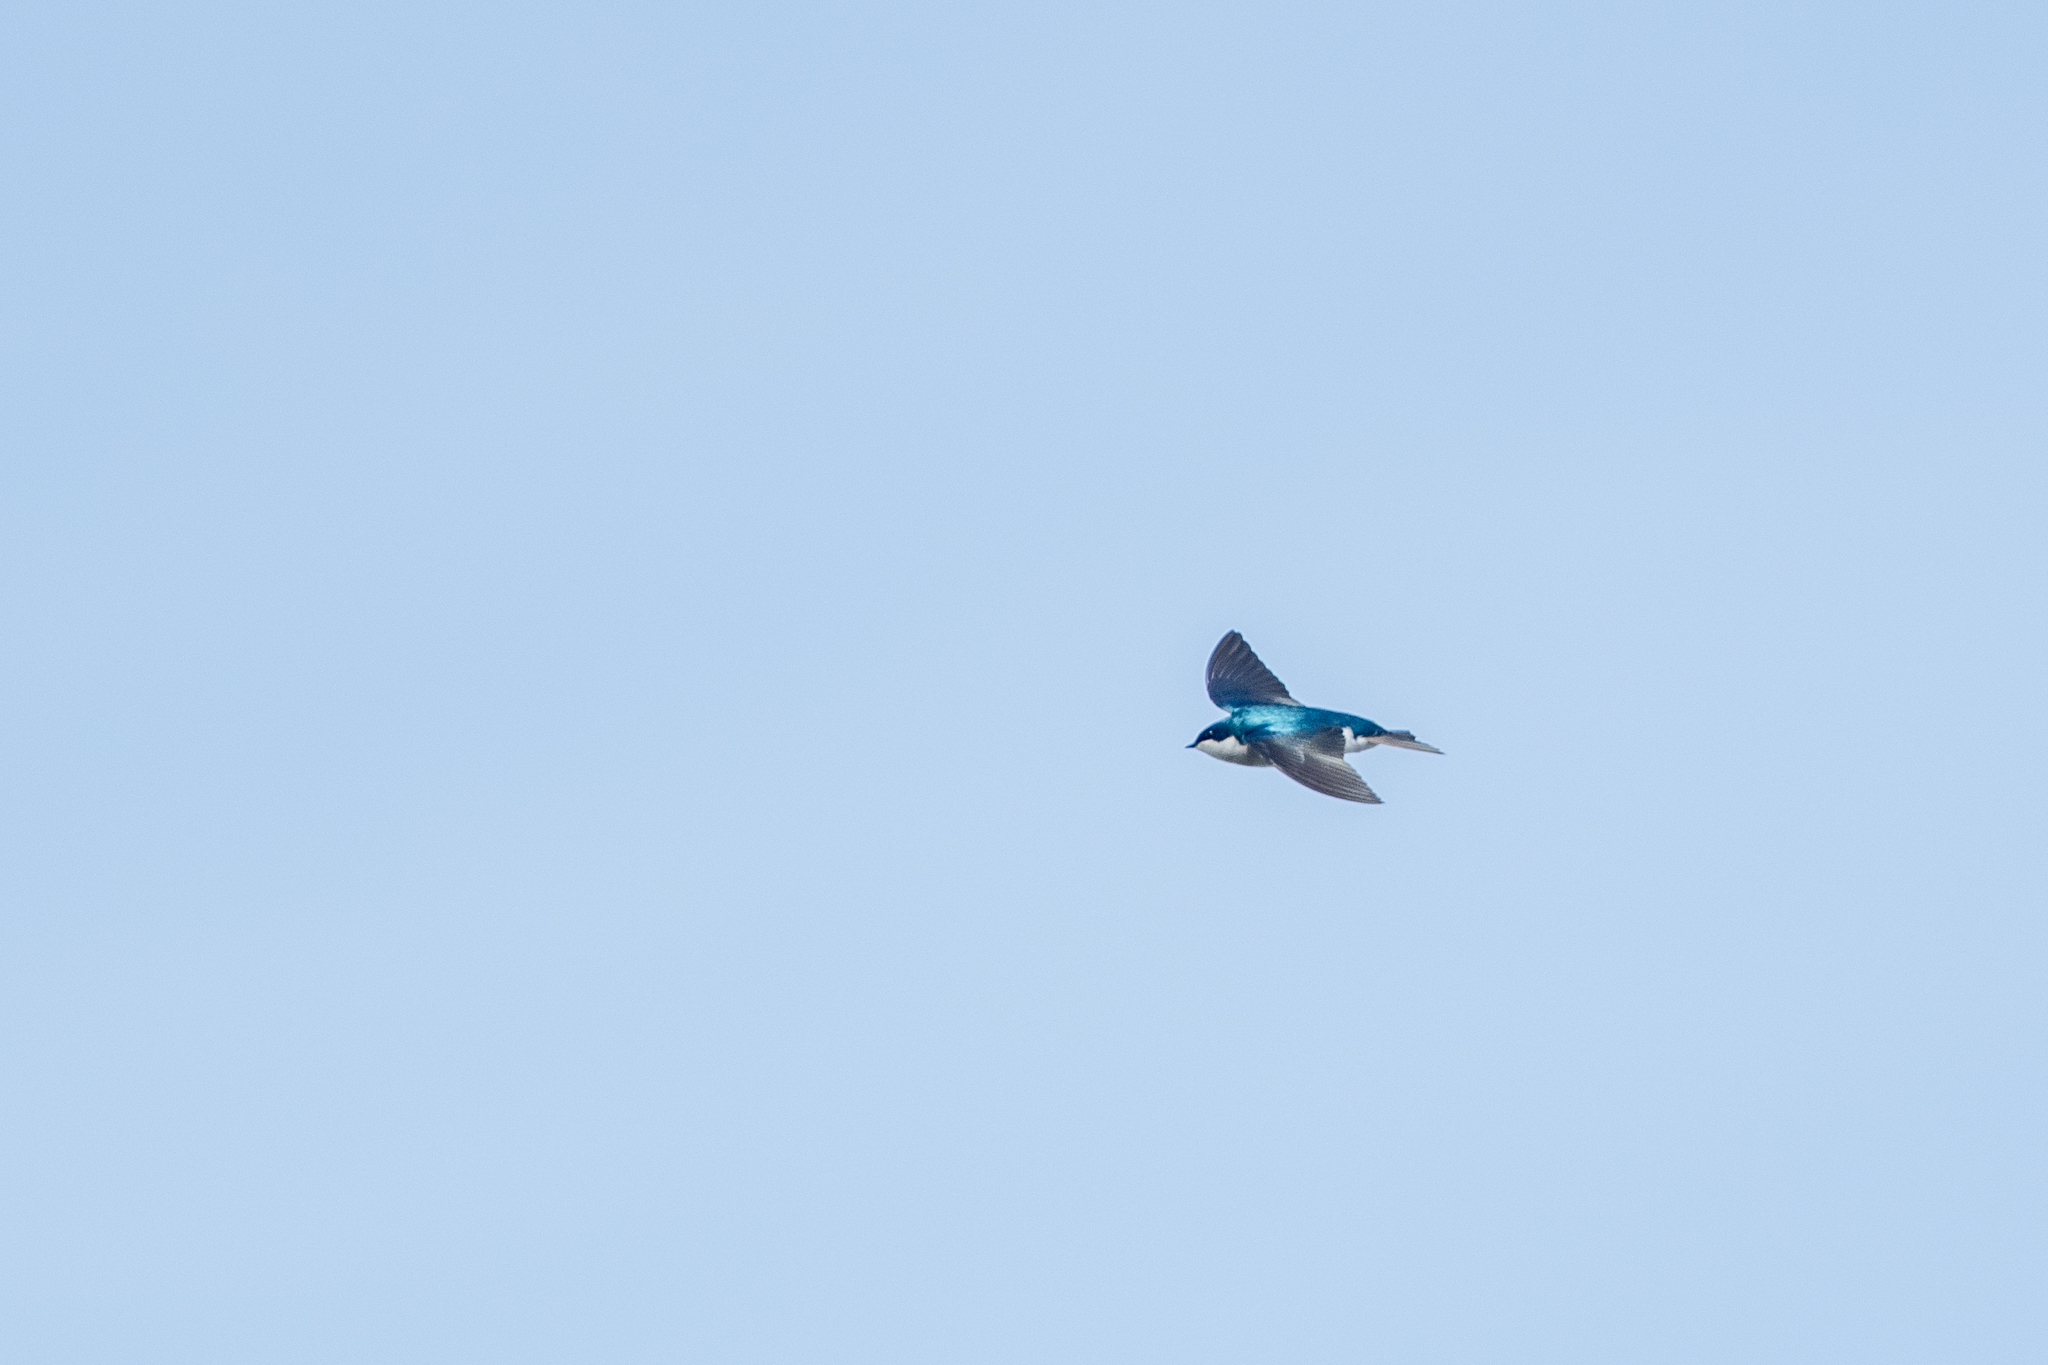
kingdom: Animalia
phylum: Chordata
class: Aves
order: Passeriformes
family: Hirundinidae
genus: Tachycineta
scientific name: Tachycineta bicolor
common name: Tree swallow
